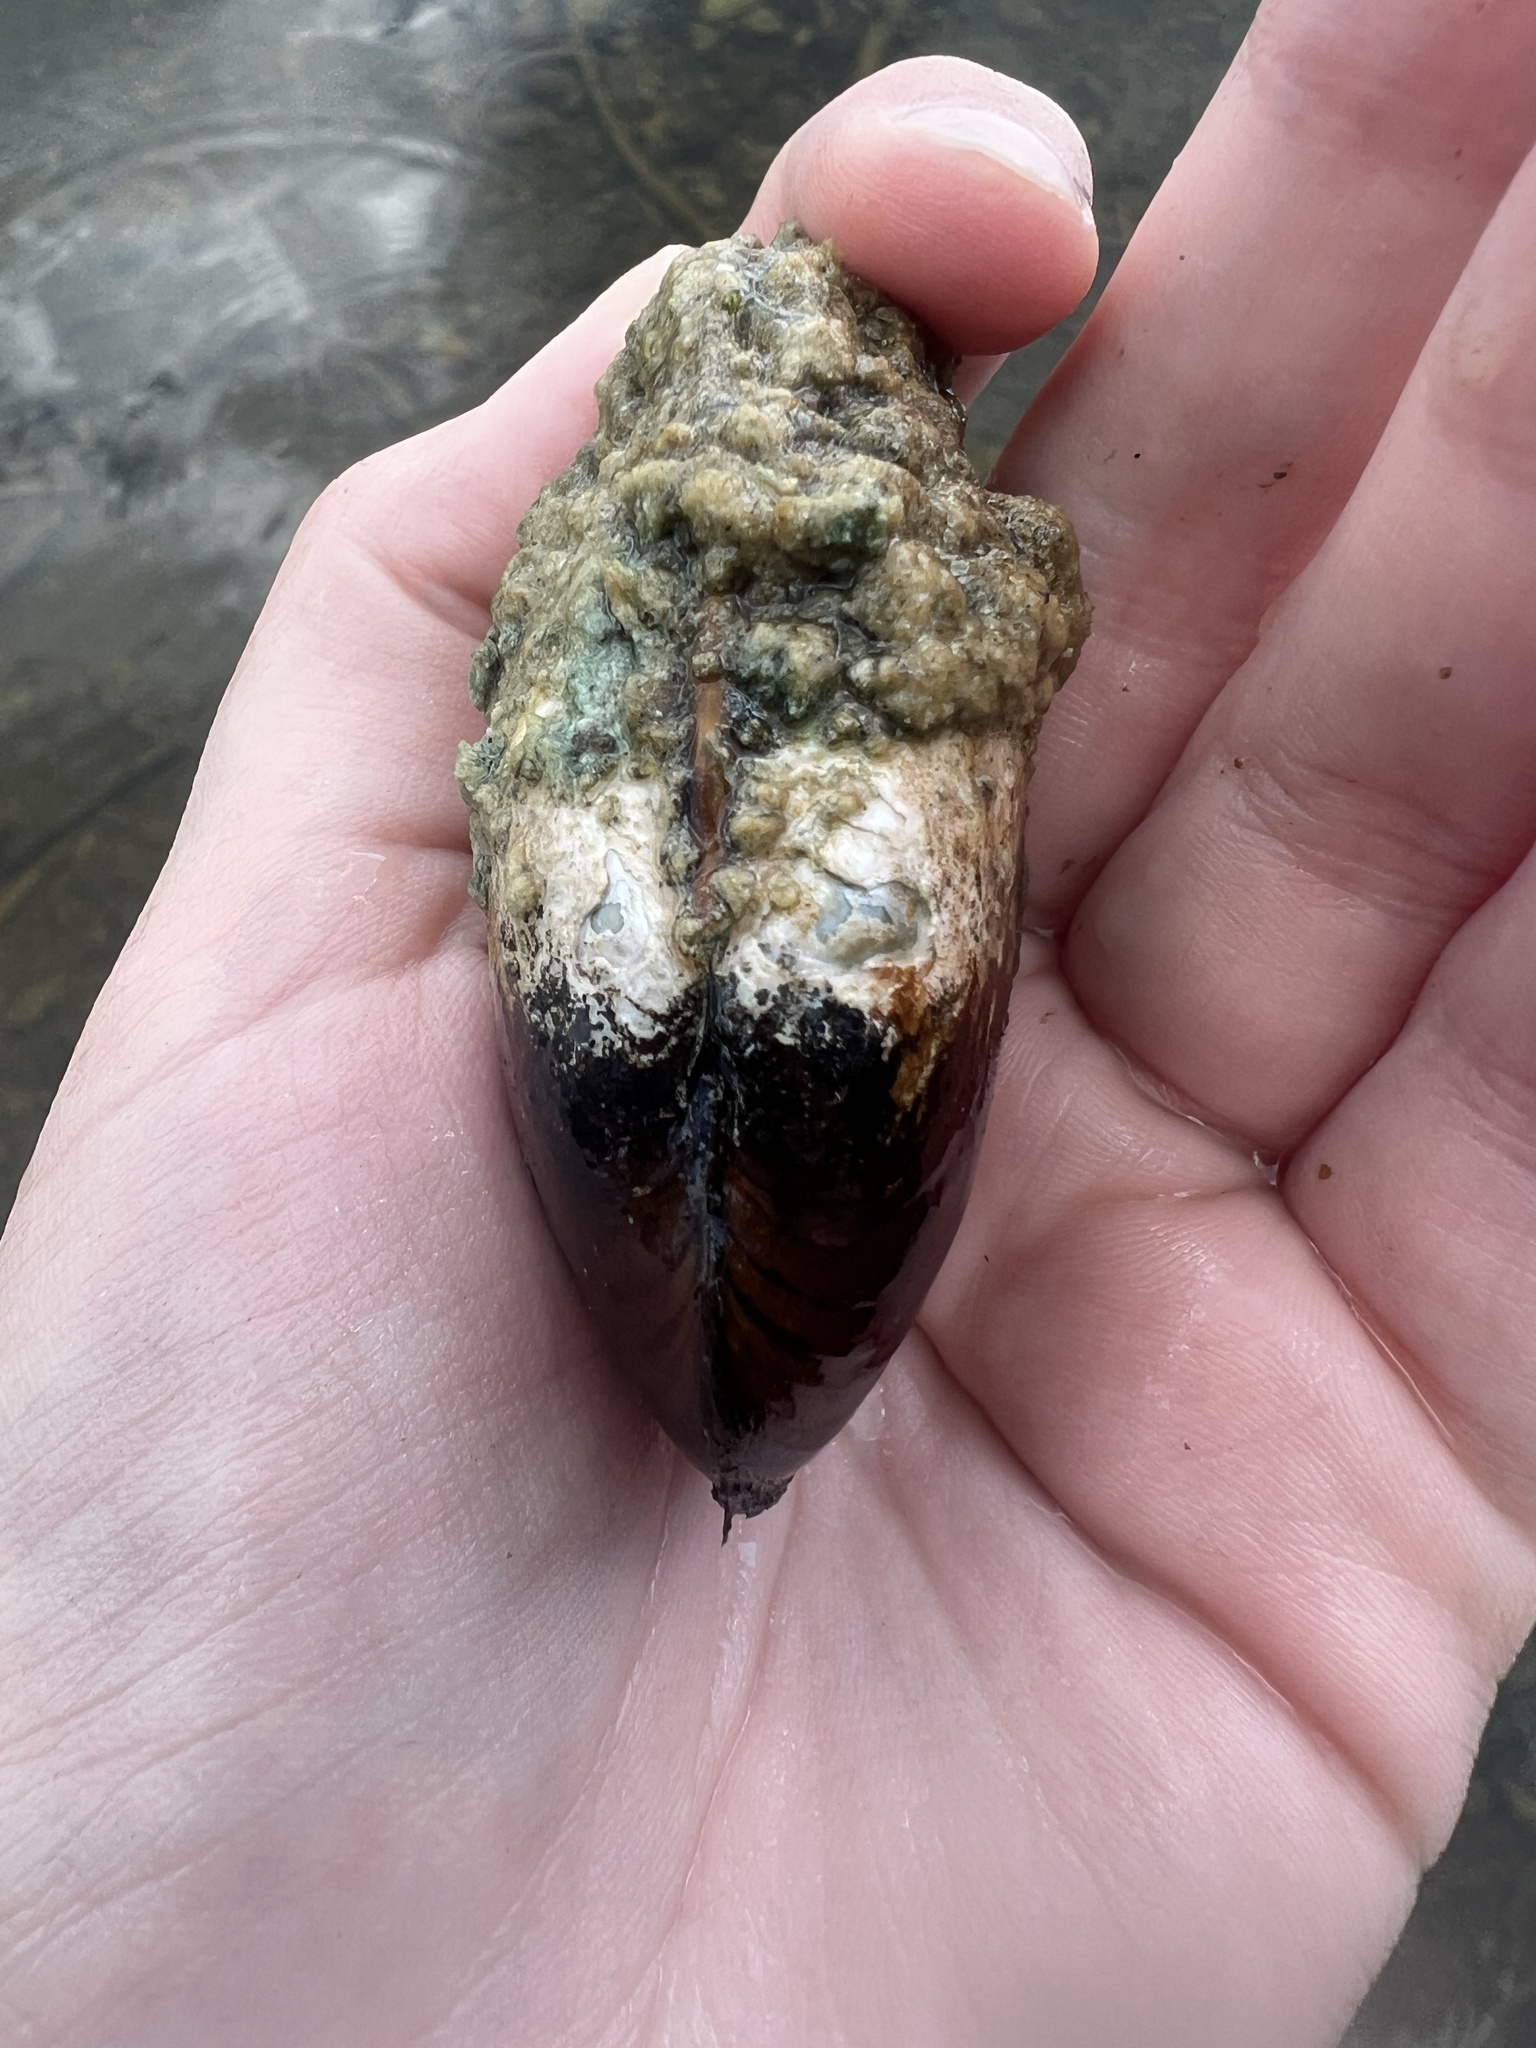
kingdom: Animalia
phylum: Mollusca
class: Bivalvia
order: Unionida
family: Unionidae
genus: Lampsilis
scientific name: Lampsilis siliquoidea
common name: Fatmucket
